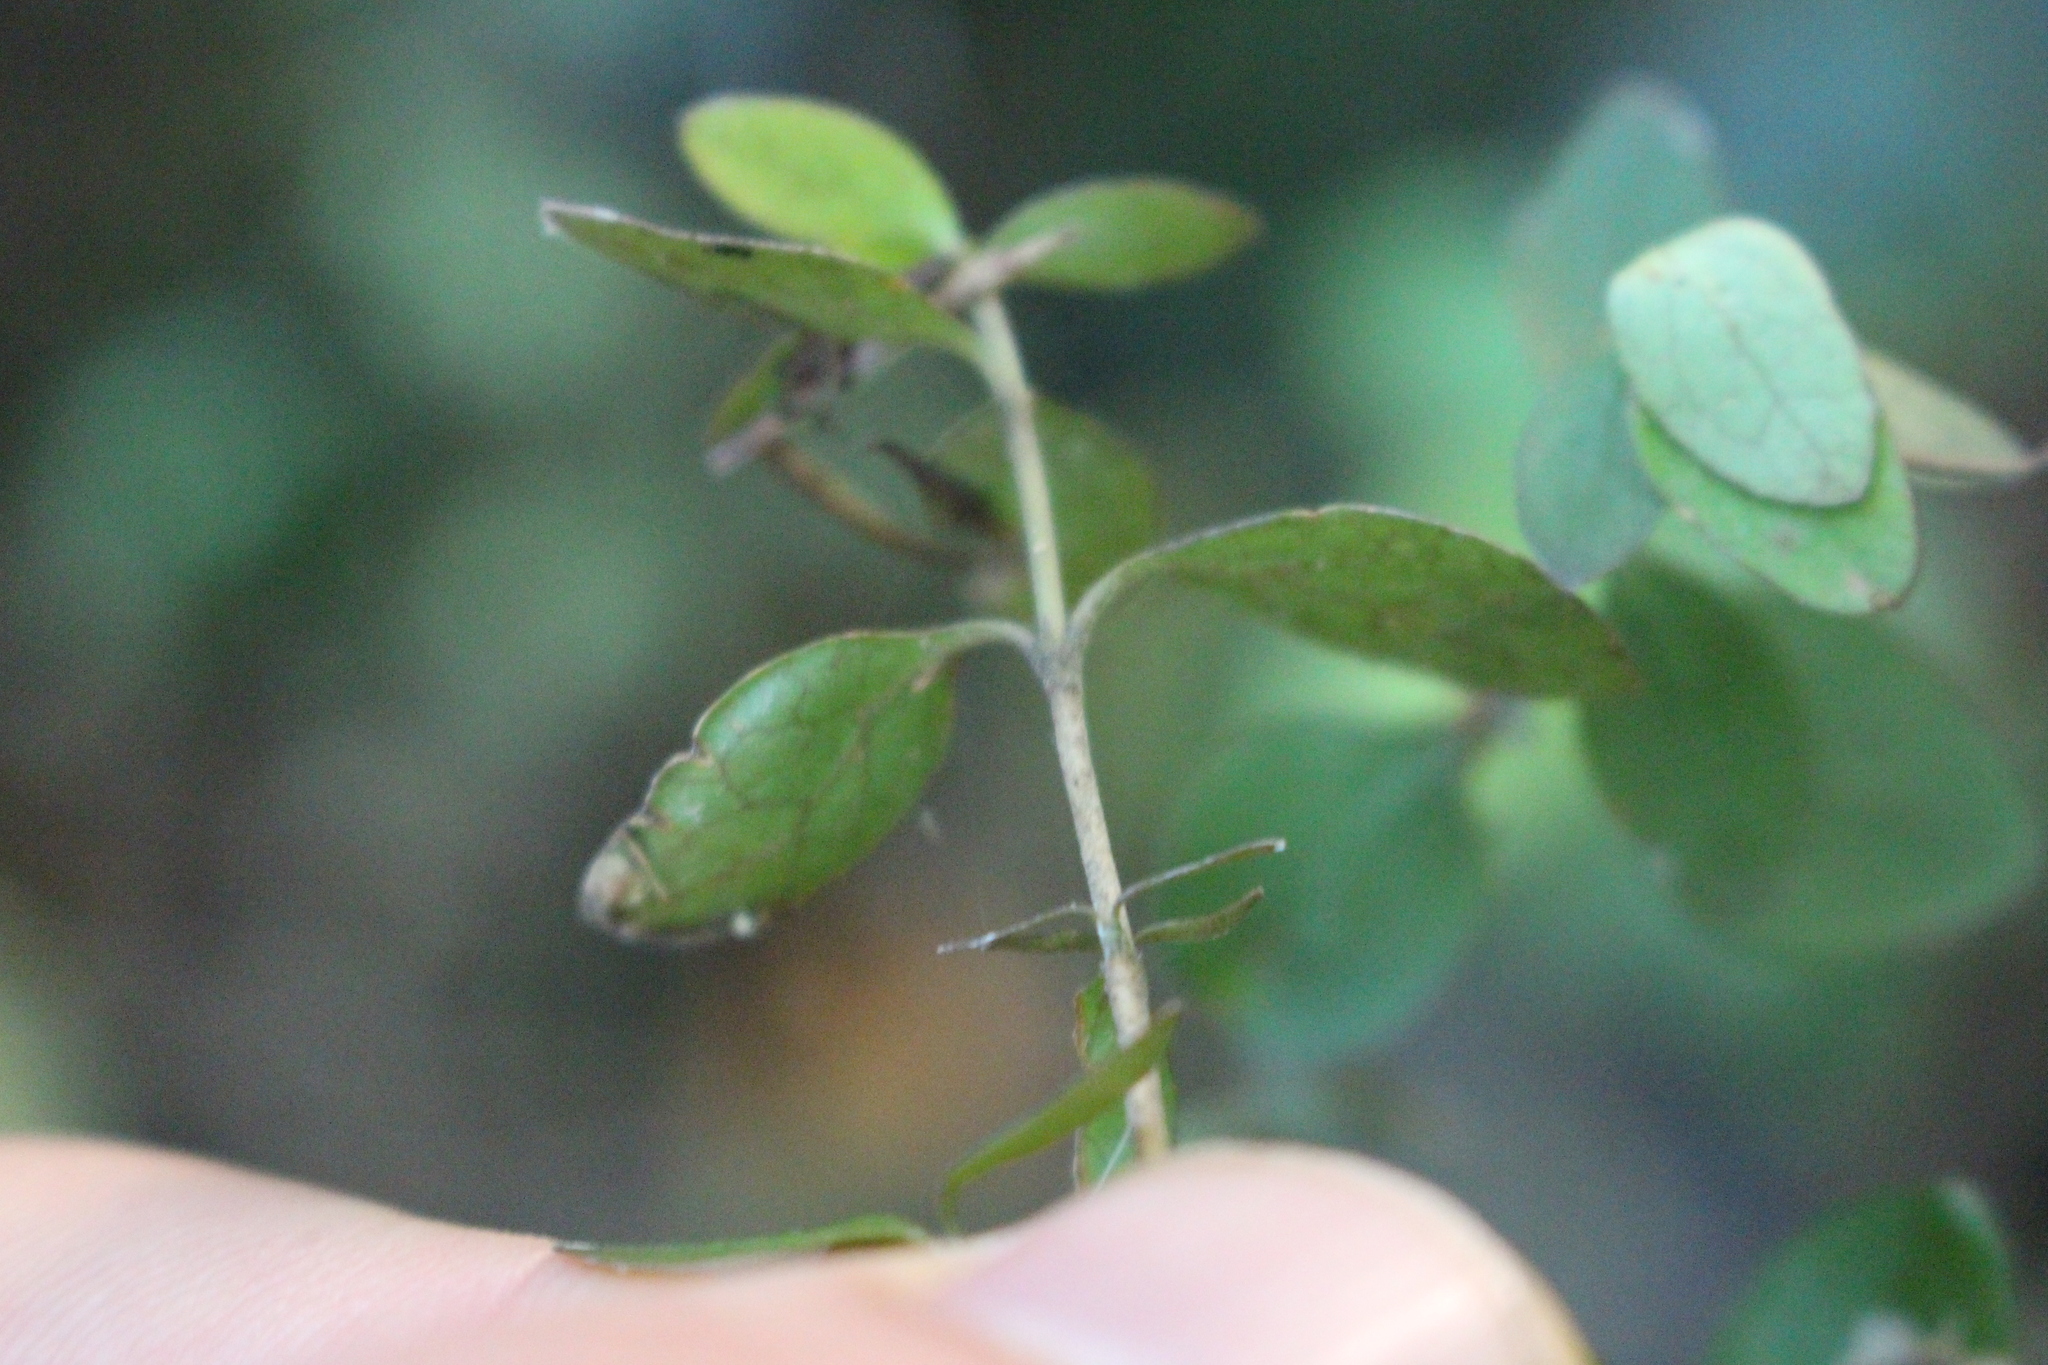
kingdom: Plantae
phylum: Tracheophyta
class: Magnoliopsida
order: Gentianales
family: Rubiaceae
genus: Coprosma
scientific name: Coprosma rhamnoides
